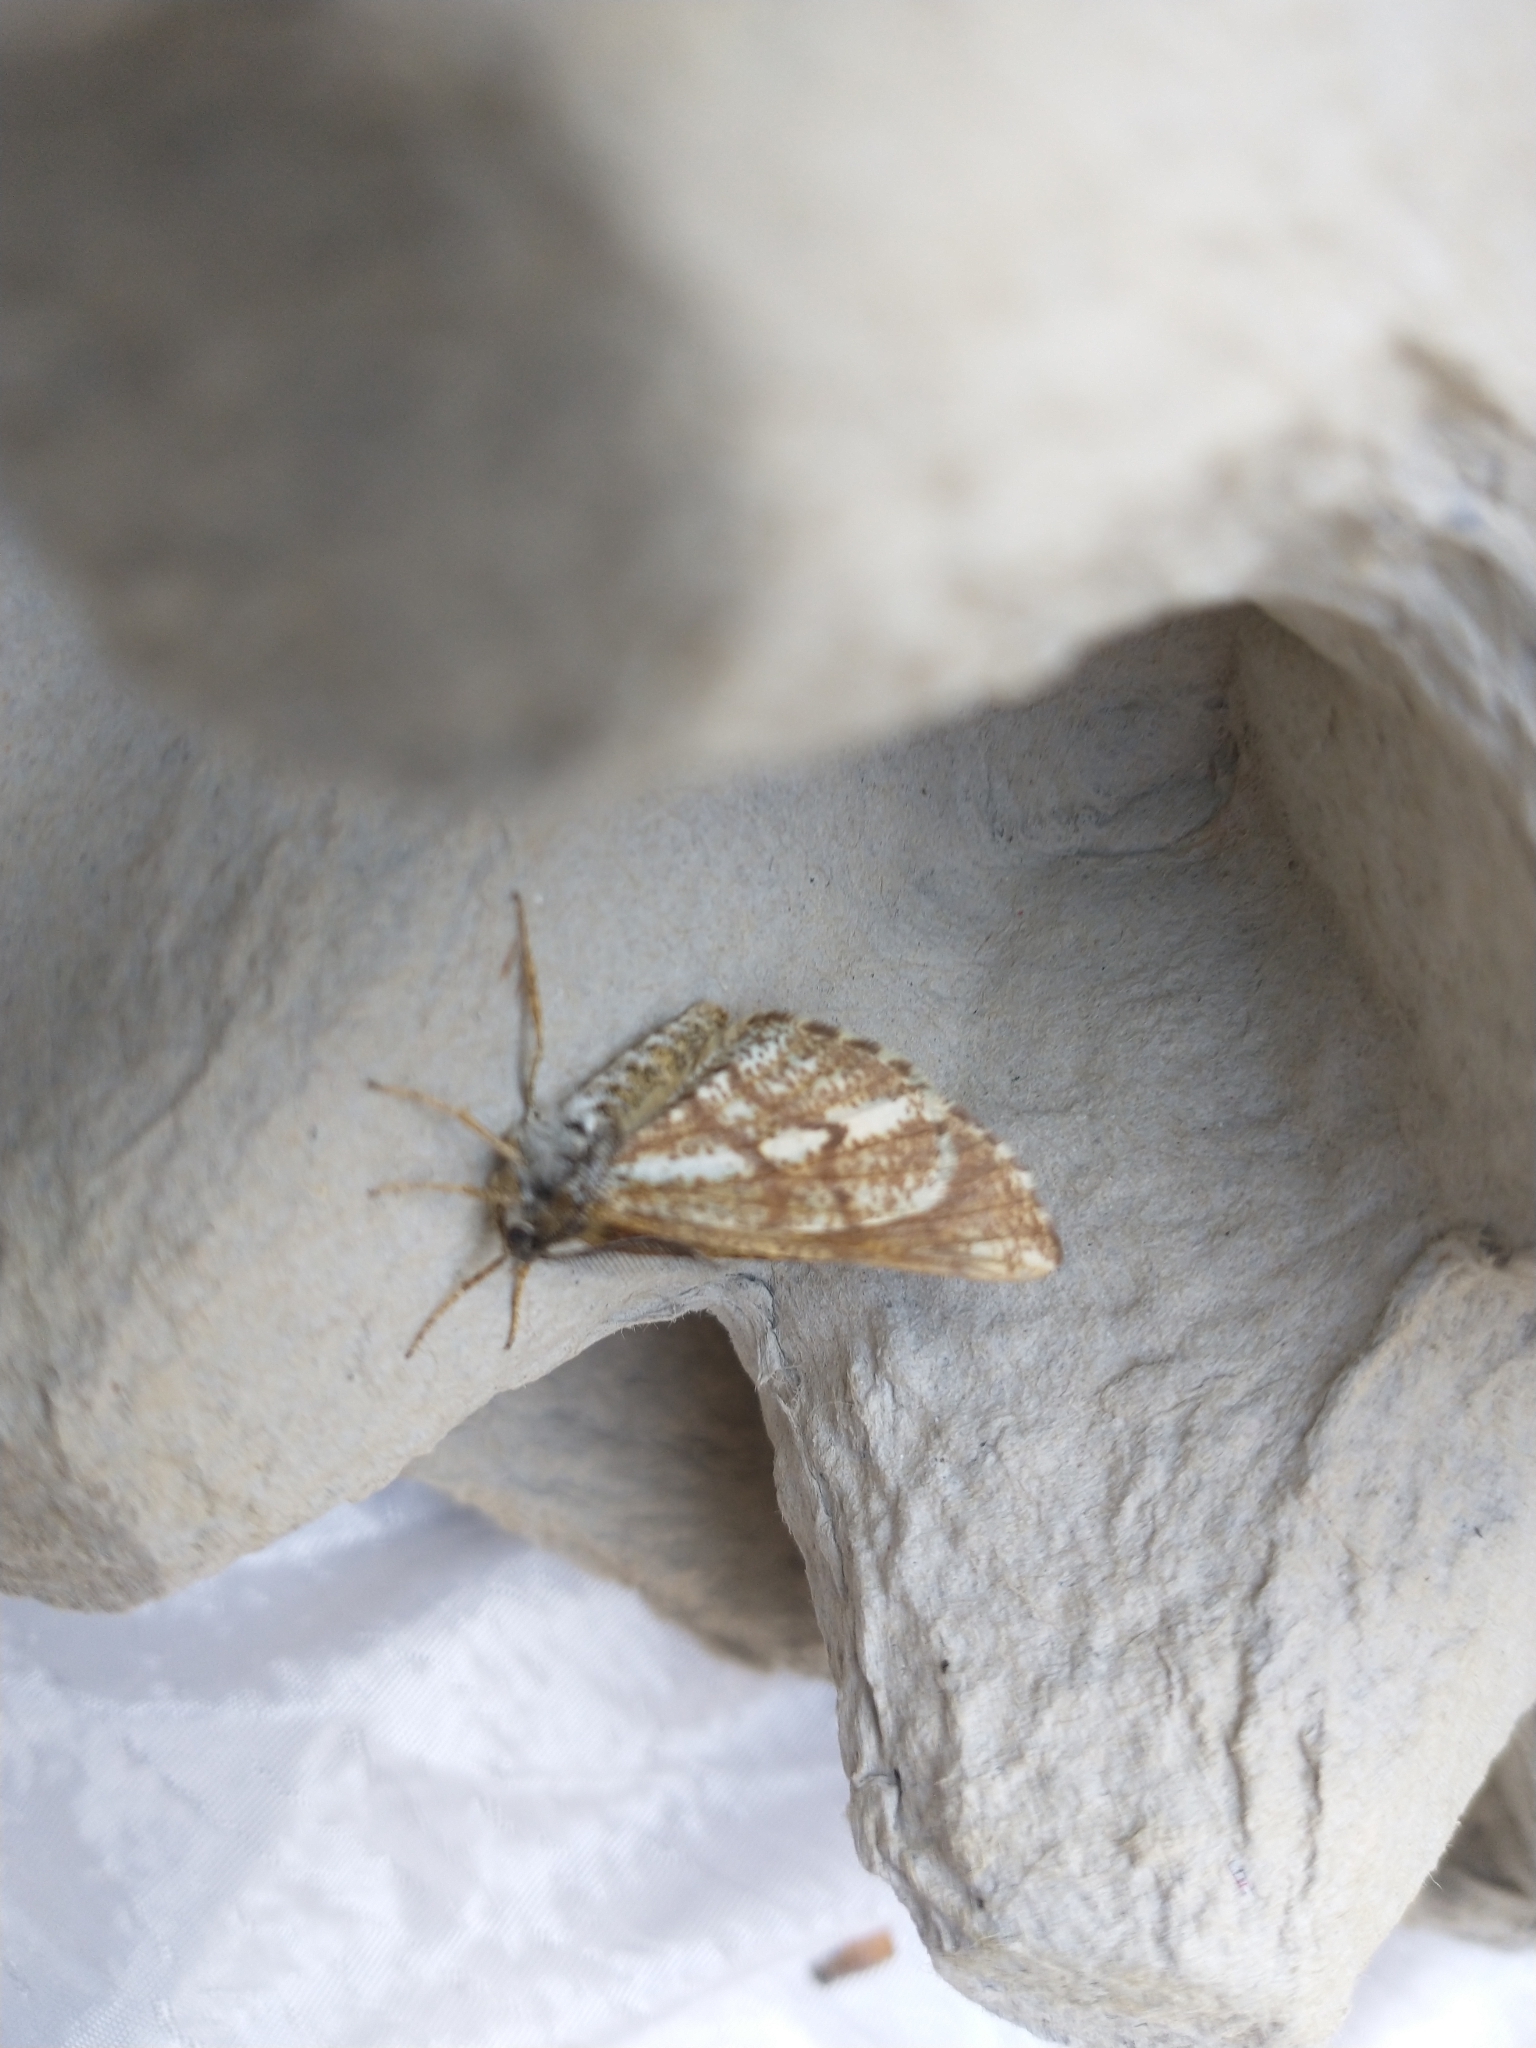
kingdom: Animalia
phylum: Arthropoda
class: Insecta
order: Lepidoptera
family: Geometridae
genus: Bupalus
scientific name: Bupalus piniaria
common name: Bordered white
